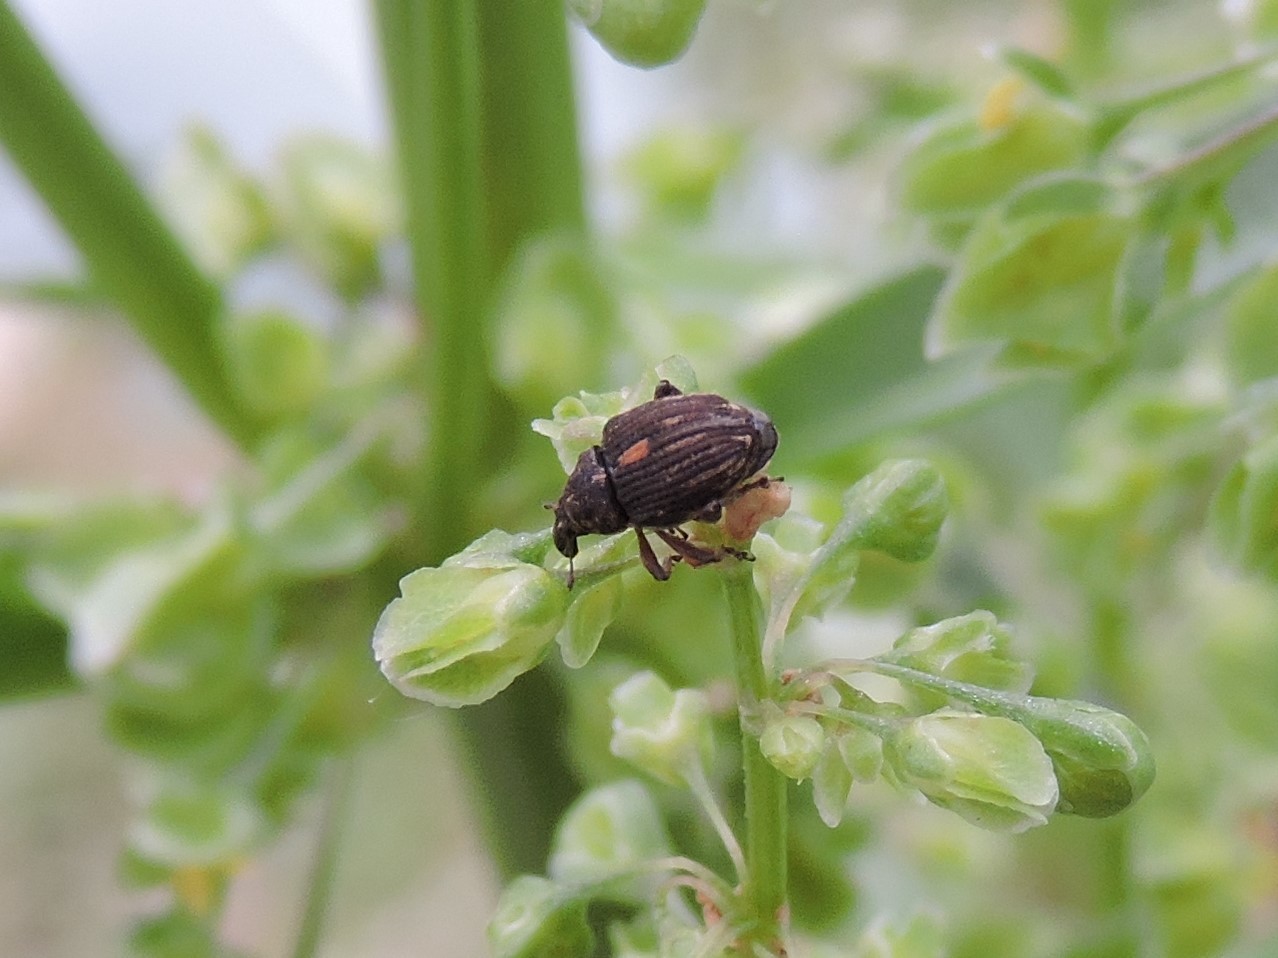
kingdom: Animalia
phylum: Arthropoda
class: Insecta
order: Coleoptera
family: Curculionidae
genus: Rhinoncus
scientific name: Rhinoncus leucostigma
